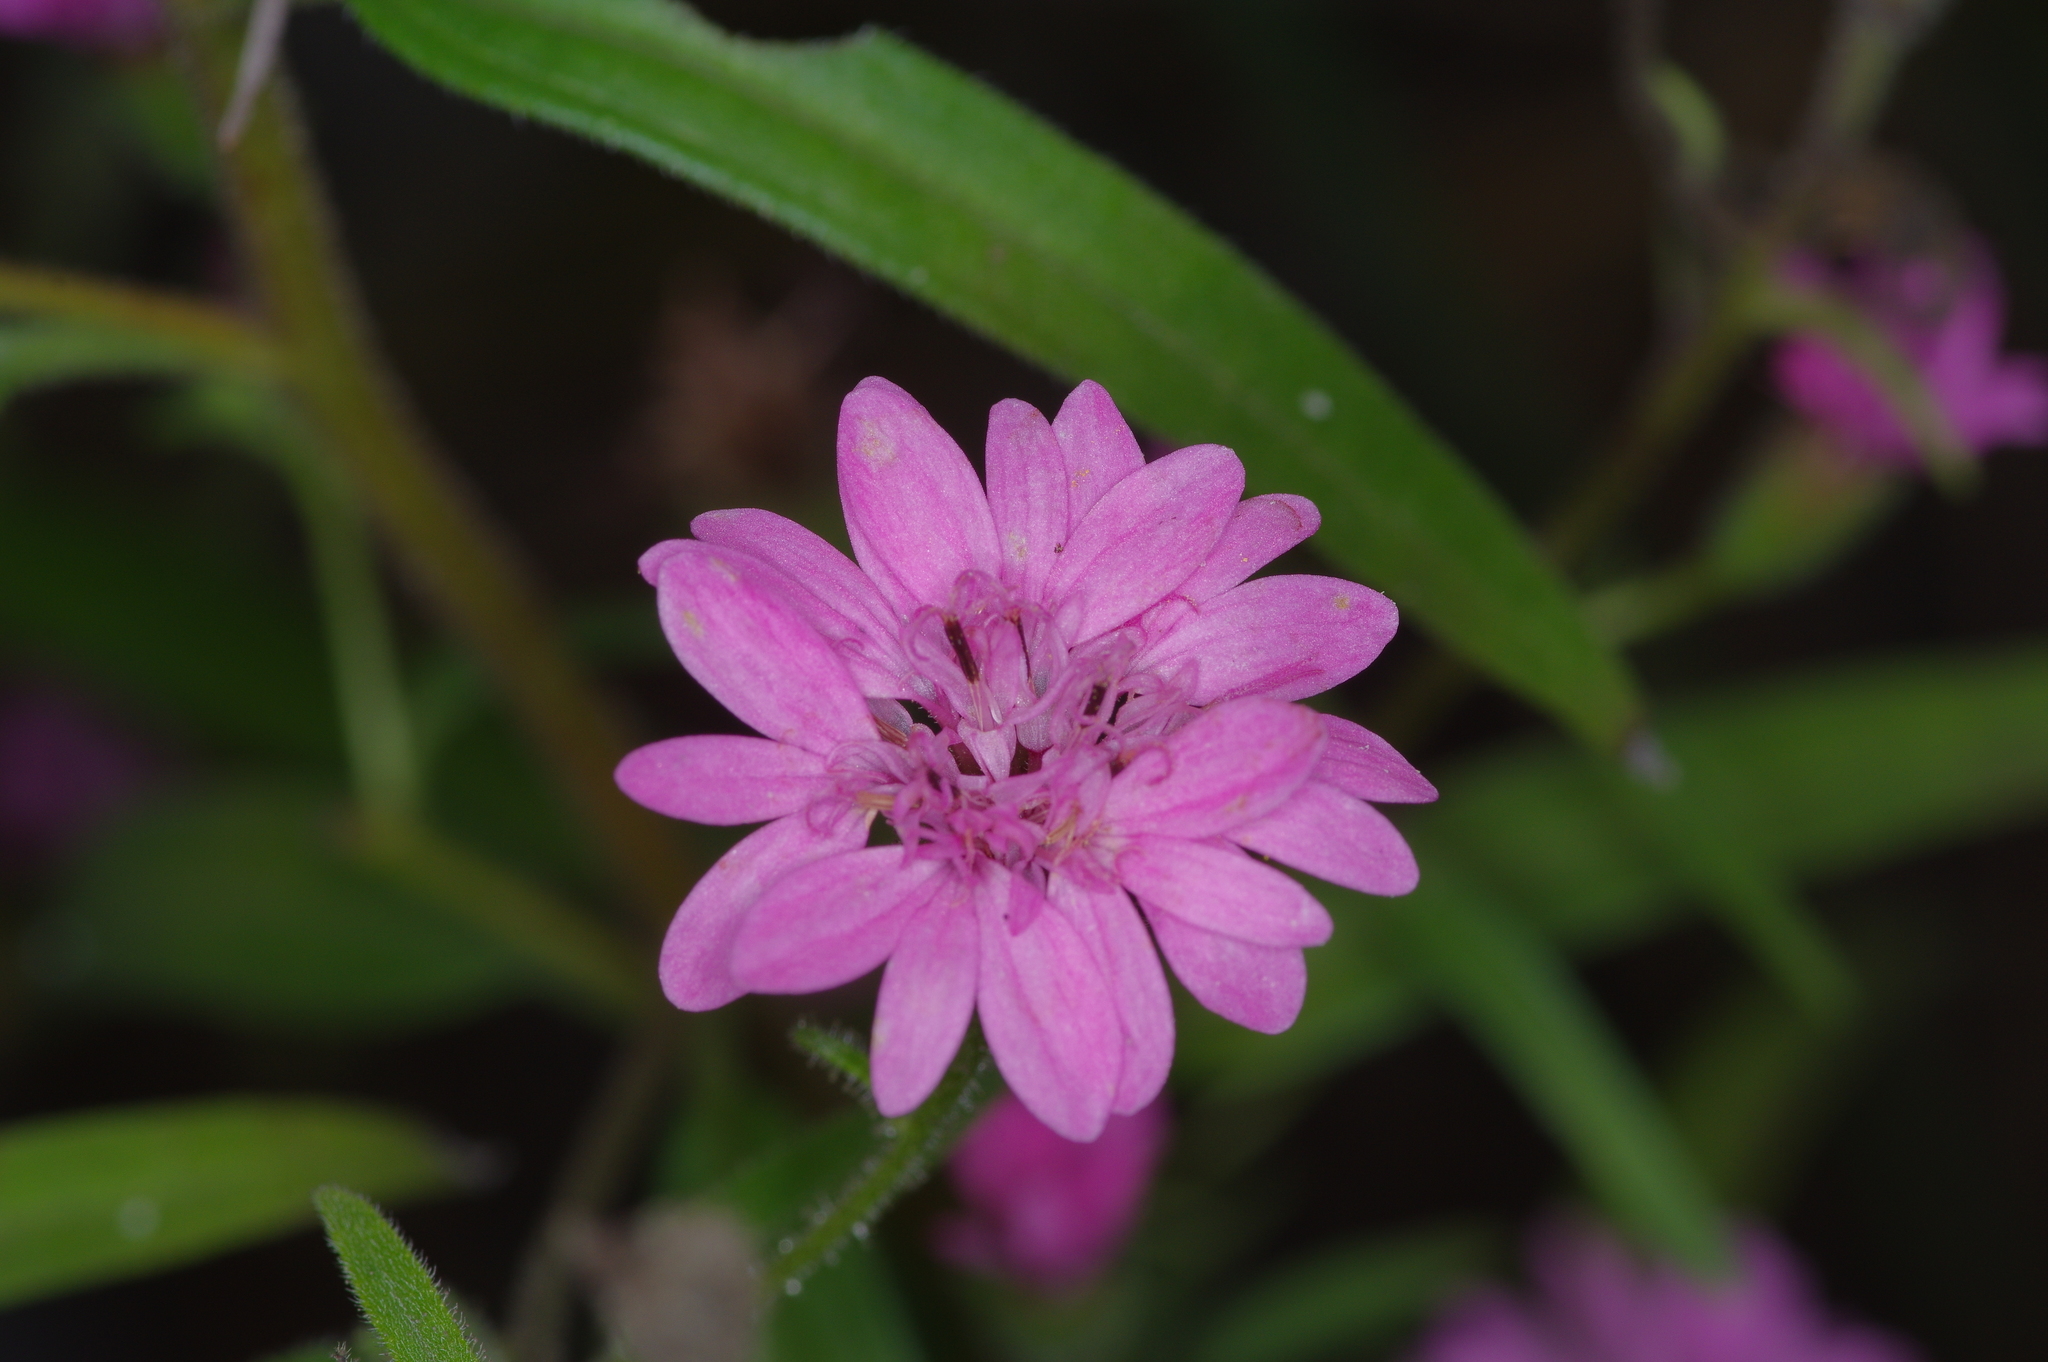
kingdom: Plantae
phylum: Tracheophyta
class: Magnoliopsida
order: Asterales
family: Asteraceae
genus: Palafoxia
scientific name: Palafoxia hookeriana
